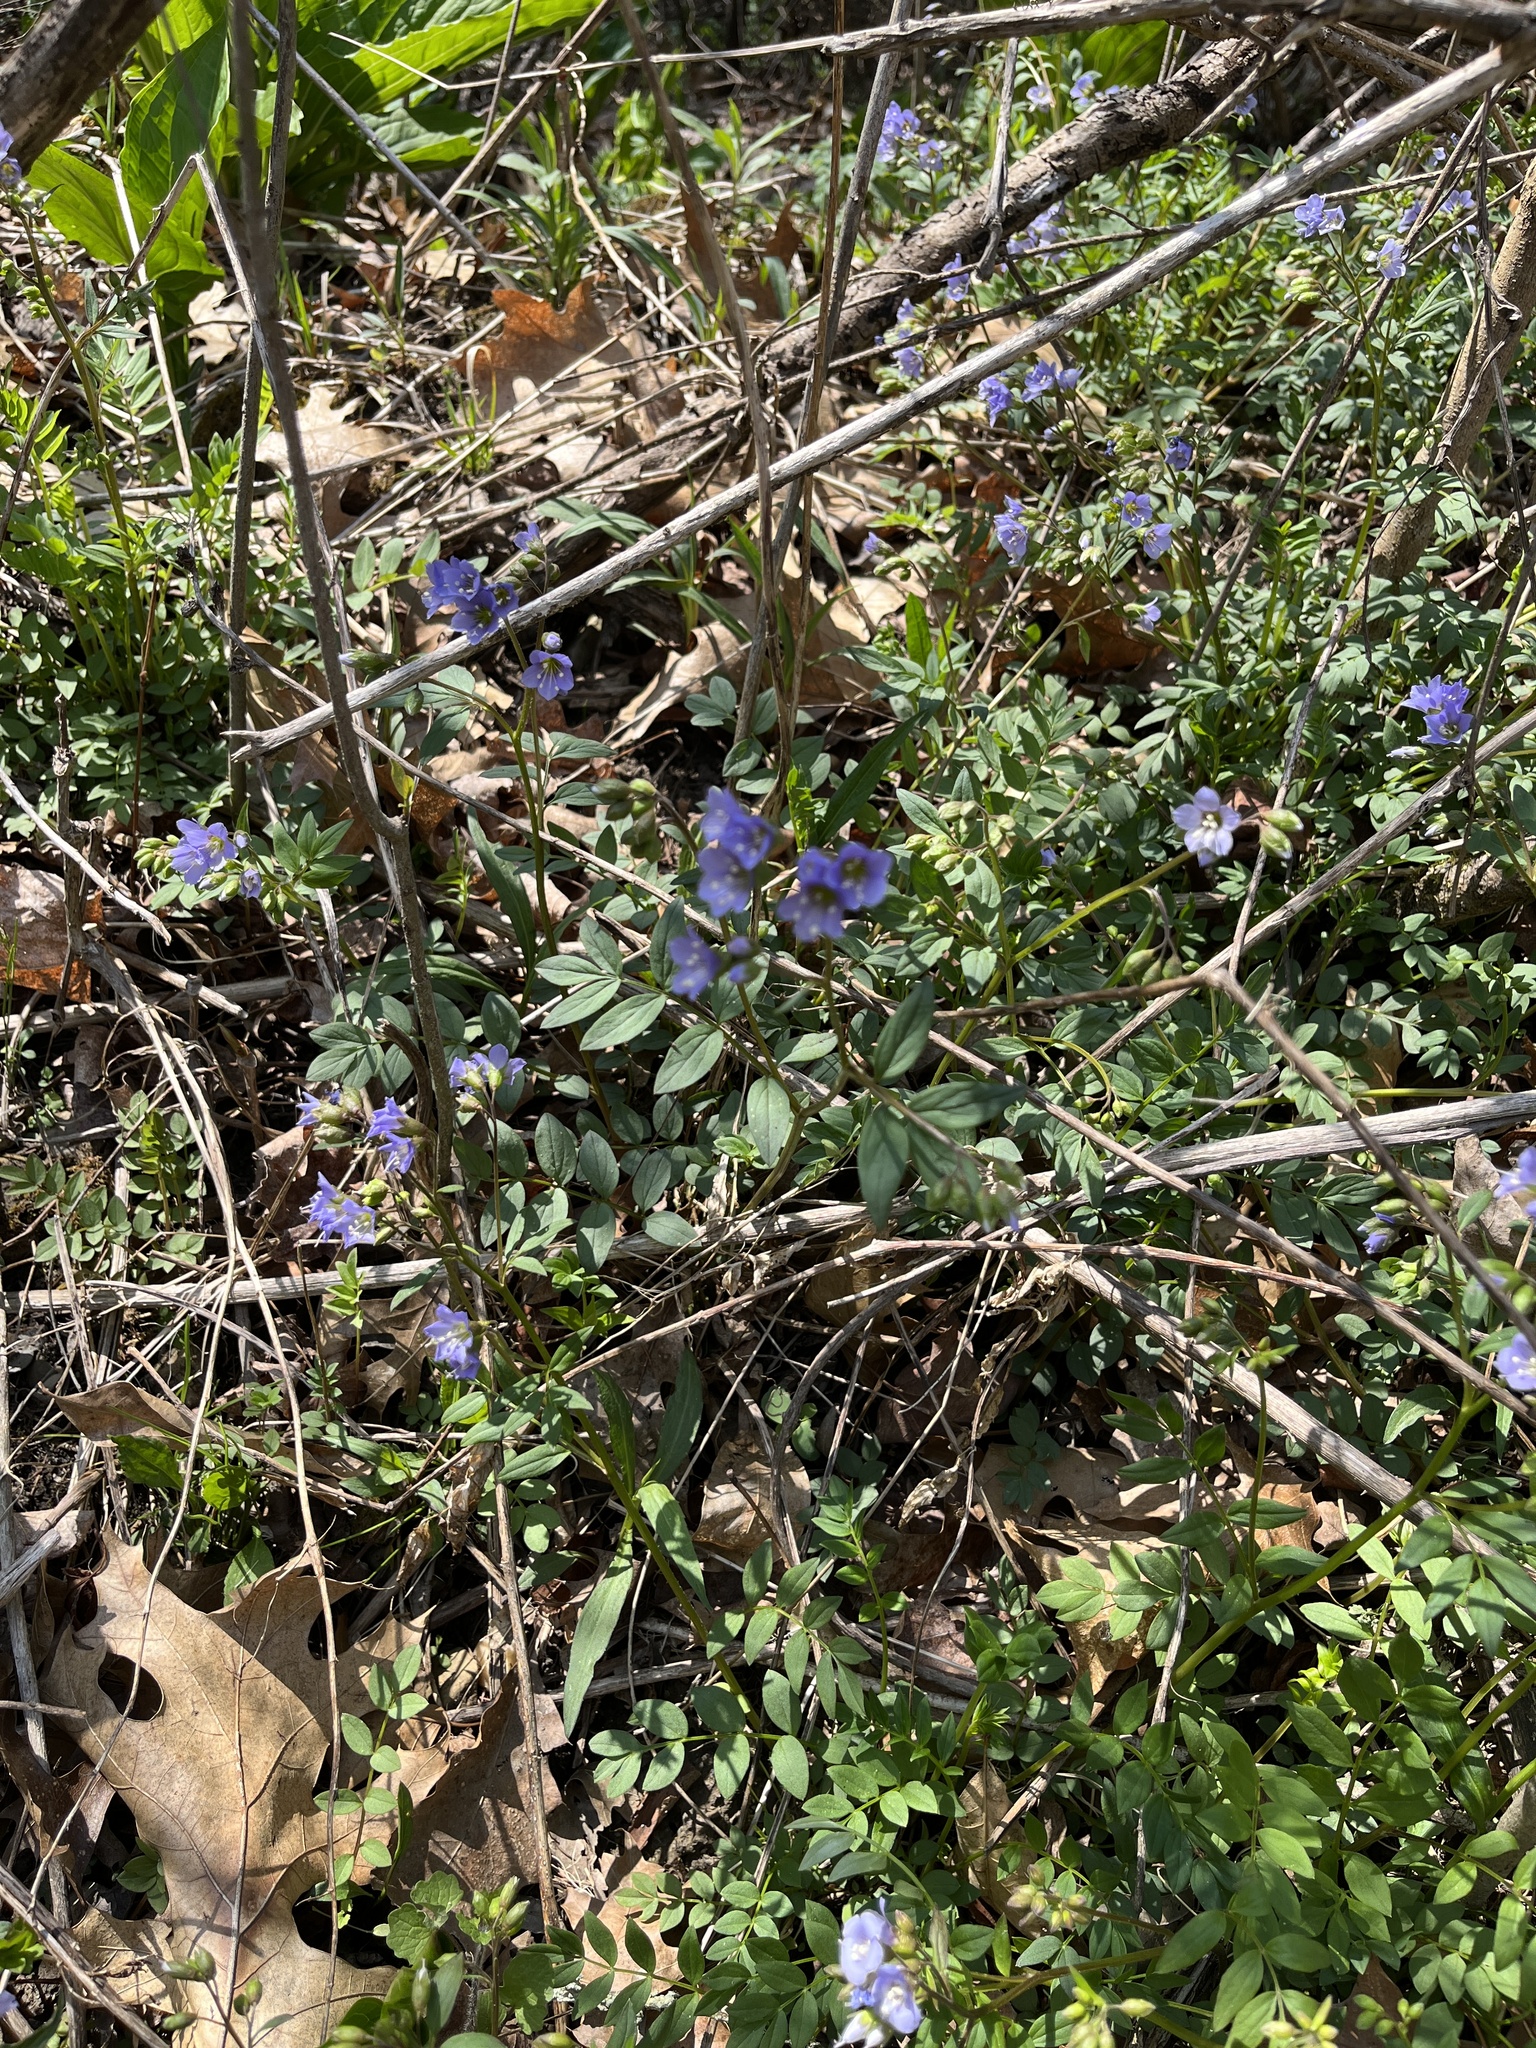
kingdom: Plantae
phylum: Tracheophyta
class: Magnoliopsida
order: Ericales
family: Polemoniaceae
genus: Polemonium
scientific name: Polemonium reptans
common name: Creeping jacob's-ladder
